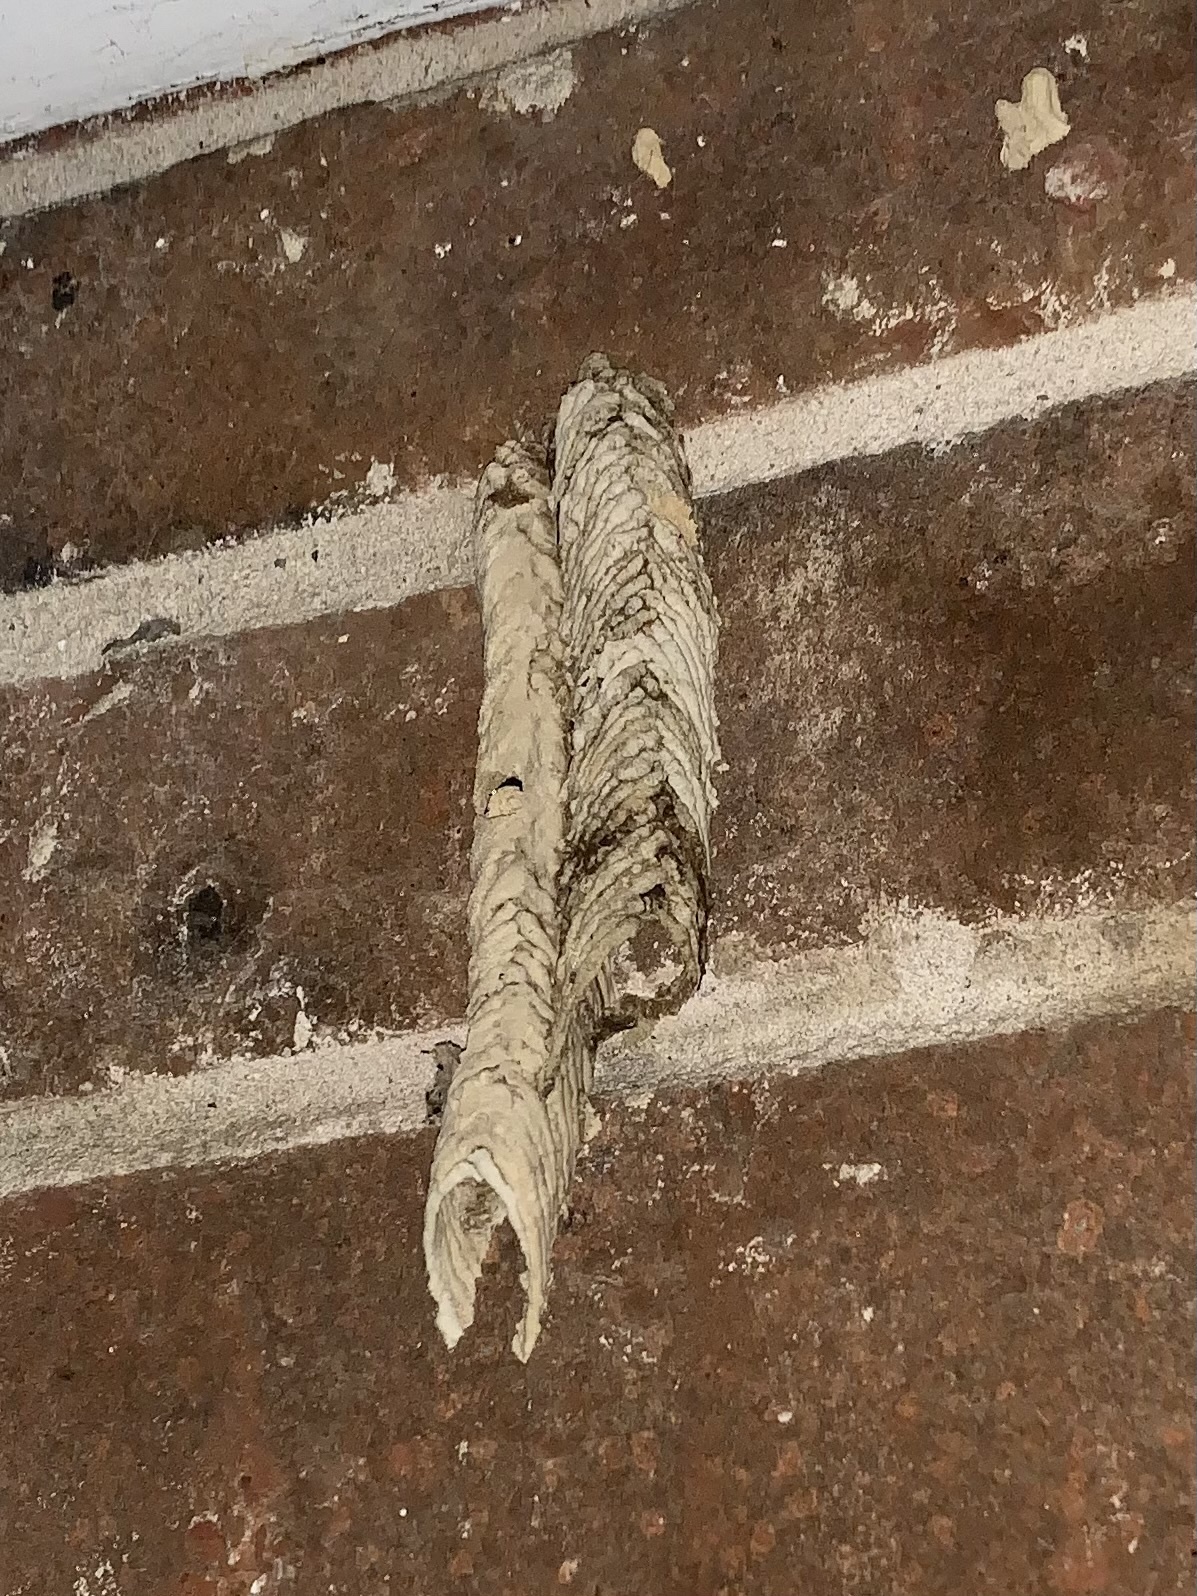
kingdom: Animalia
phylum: Arthropoda
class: Insecta
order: Hymenoptera
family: Crabronidae
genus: Trypoxylon
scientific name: Trypoxylon politum
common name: Organ-pipe mud-dauber wasp
